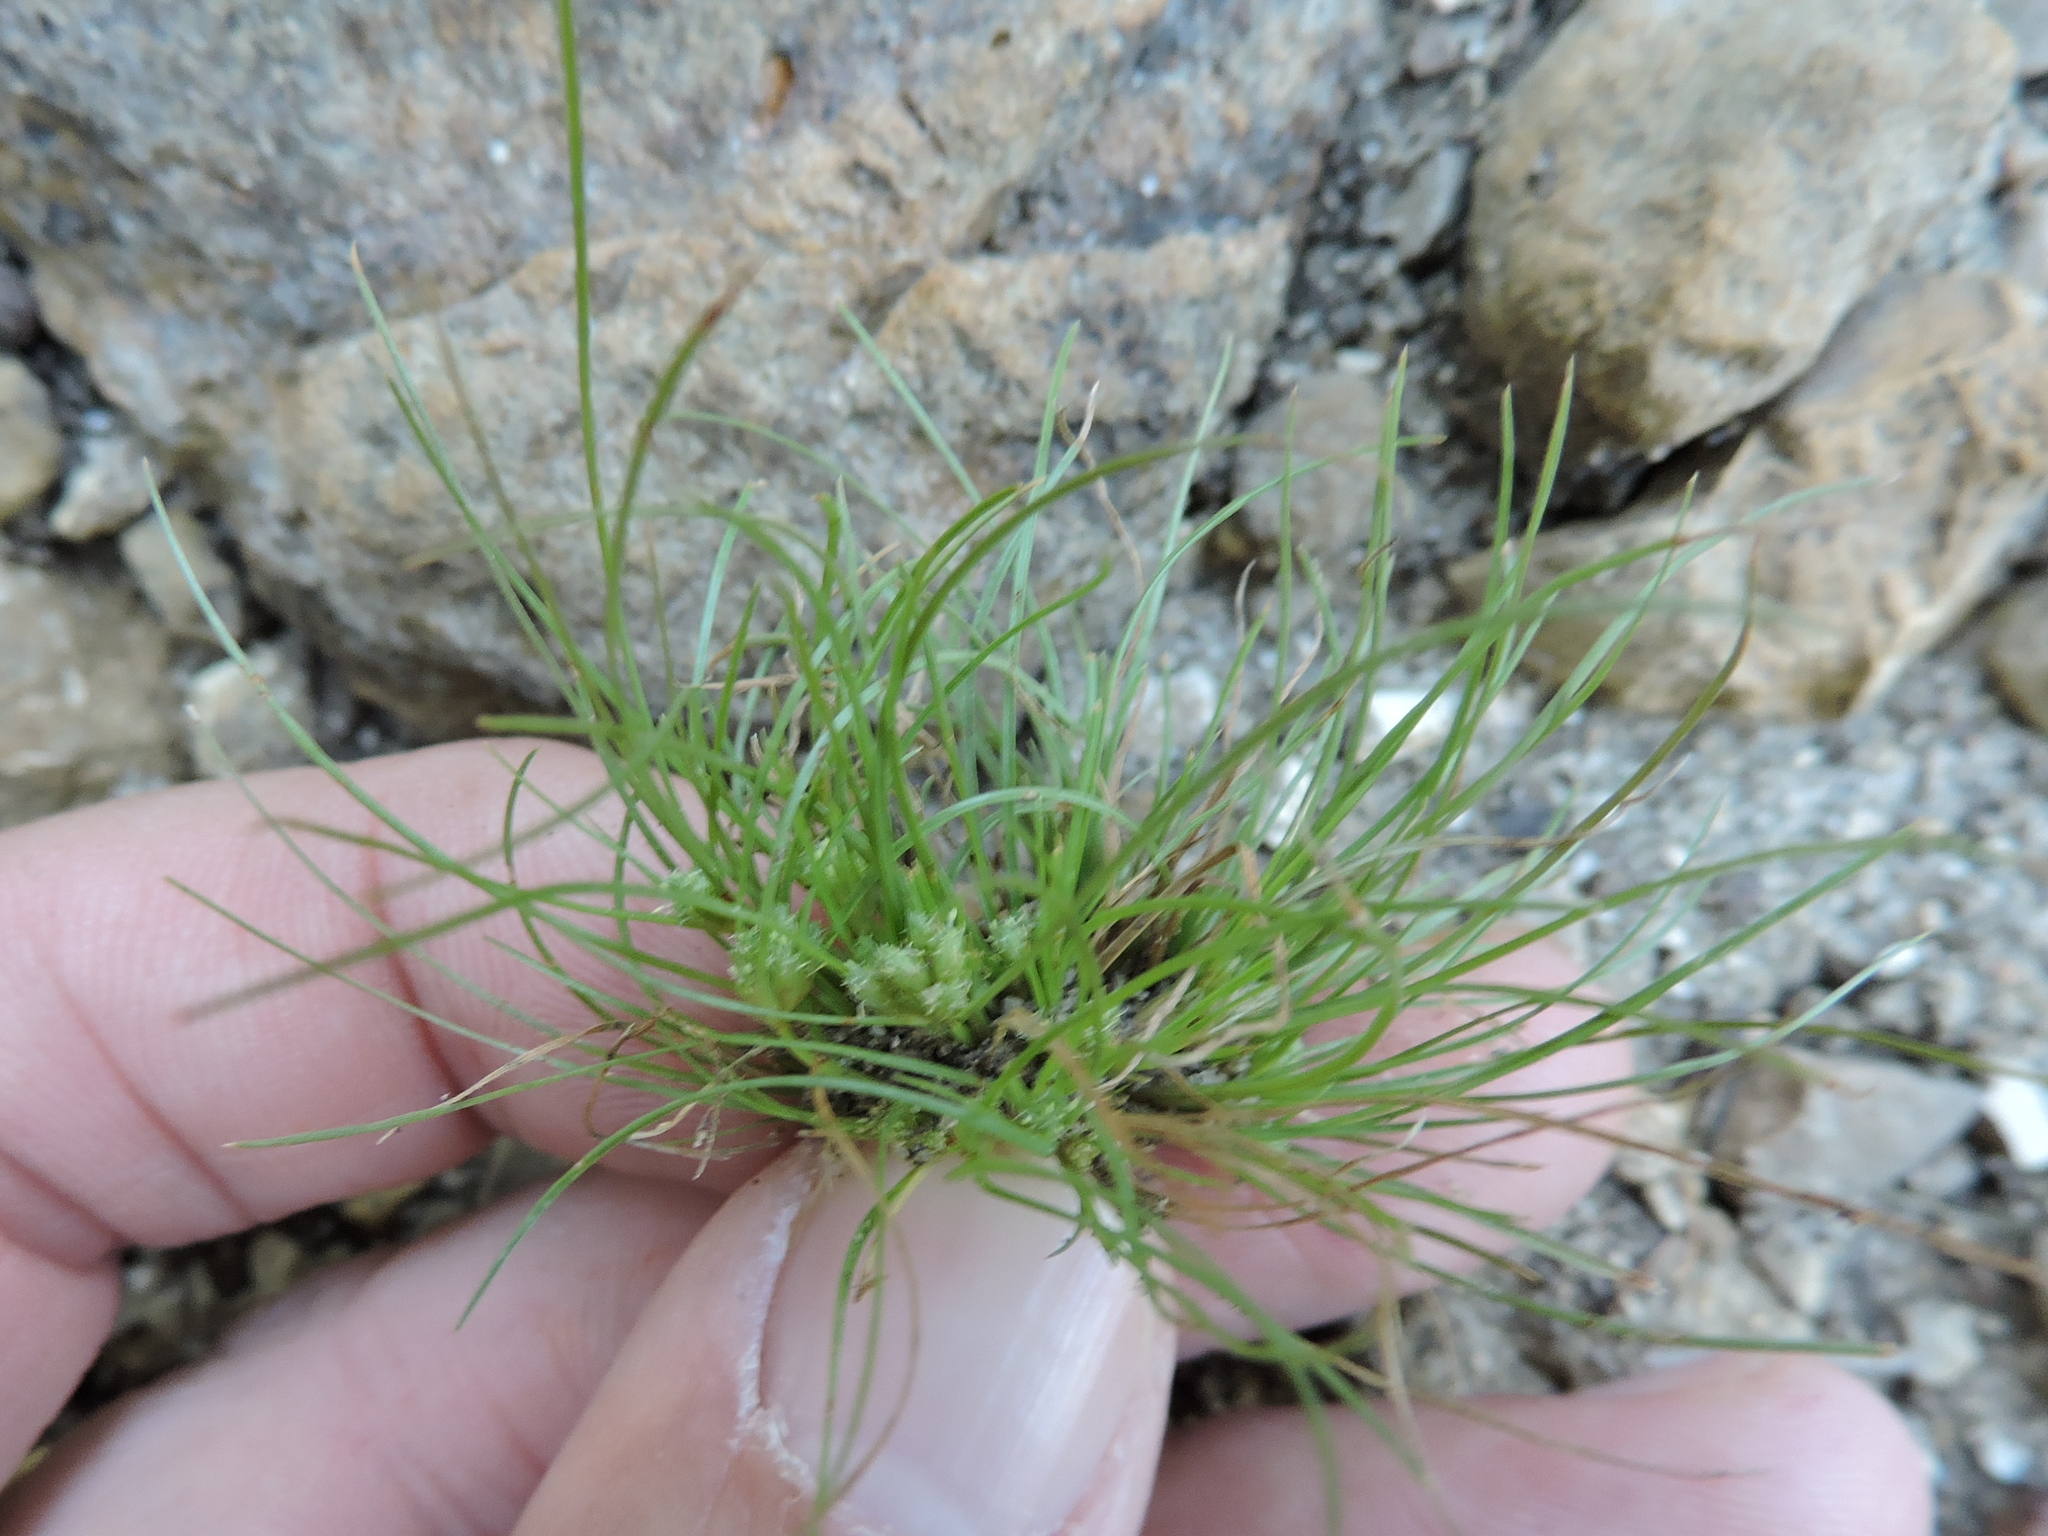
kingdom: Plantae
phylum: Tracheophyta
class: Liliopsida
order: Poales
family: Cyperaceae
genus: Fimbristylis
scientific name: Fimbristylis vahlii
